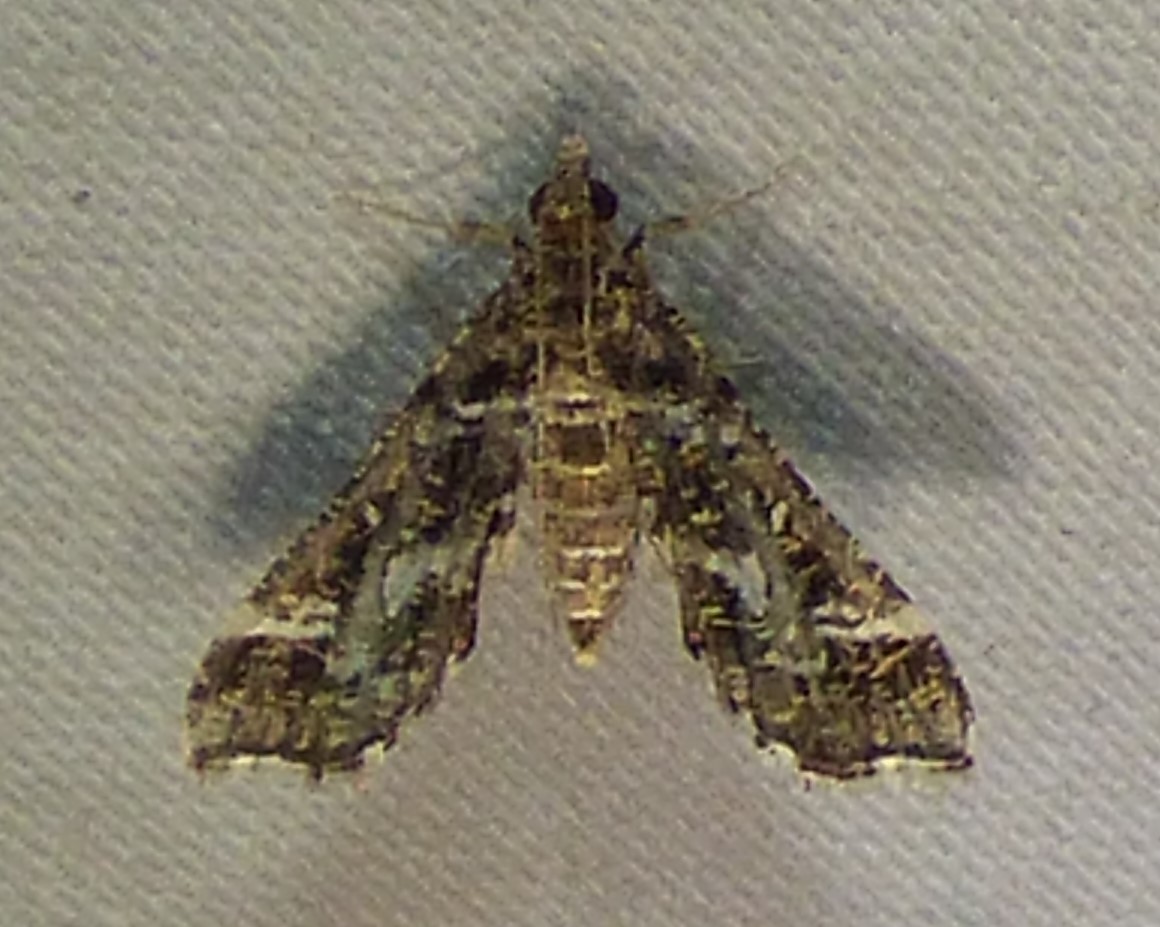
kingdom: Animalia
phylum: Arthropoda
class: Insecta
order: Lepidoptera
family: Crambidae
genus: Diasemiopsis
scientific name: Diasemiopsis ramburialis
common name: Vagrant china-mark
